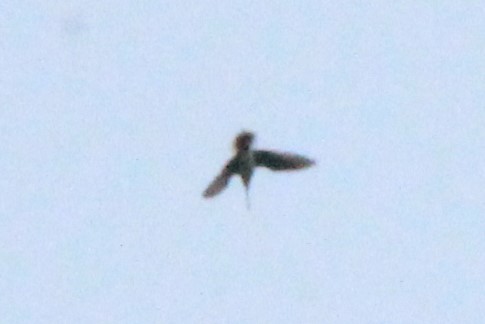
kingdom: Animalia
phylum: Chordata
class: Aves
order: Charadriiformes
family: Scolopacidae
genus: Gallinago
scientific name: Gallinago delicata
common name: Wilson's snipe
